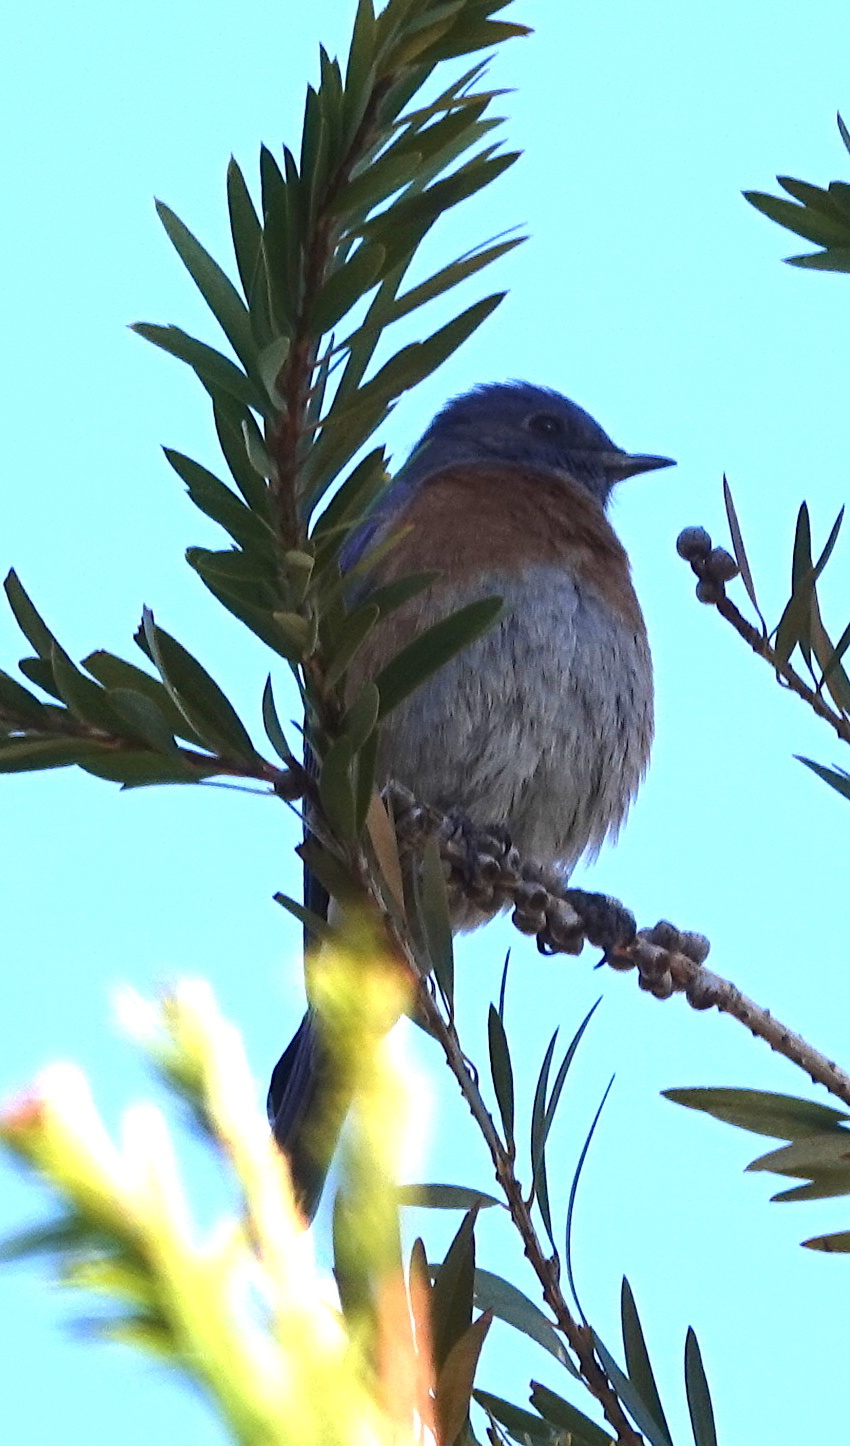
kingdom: Animalia
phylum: Chordata
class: Aves
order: Passeriformes
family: Turdidae
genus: Sialia
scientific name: Sialia mexicana
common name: Western bluebird
